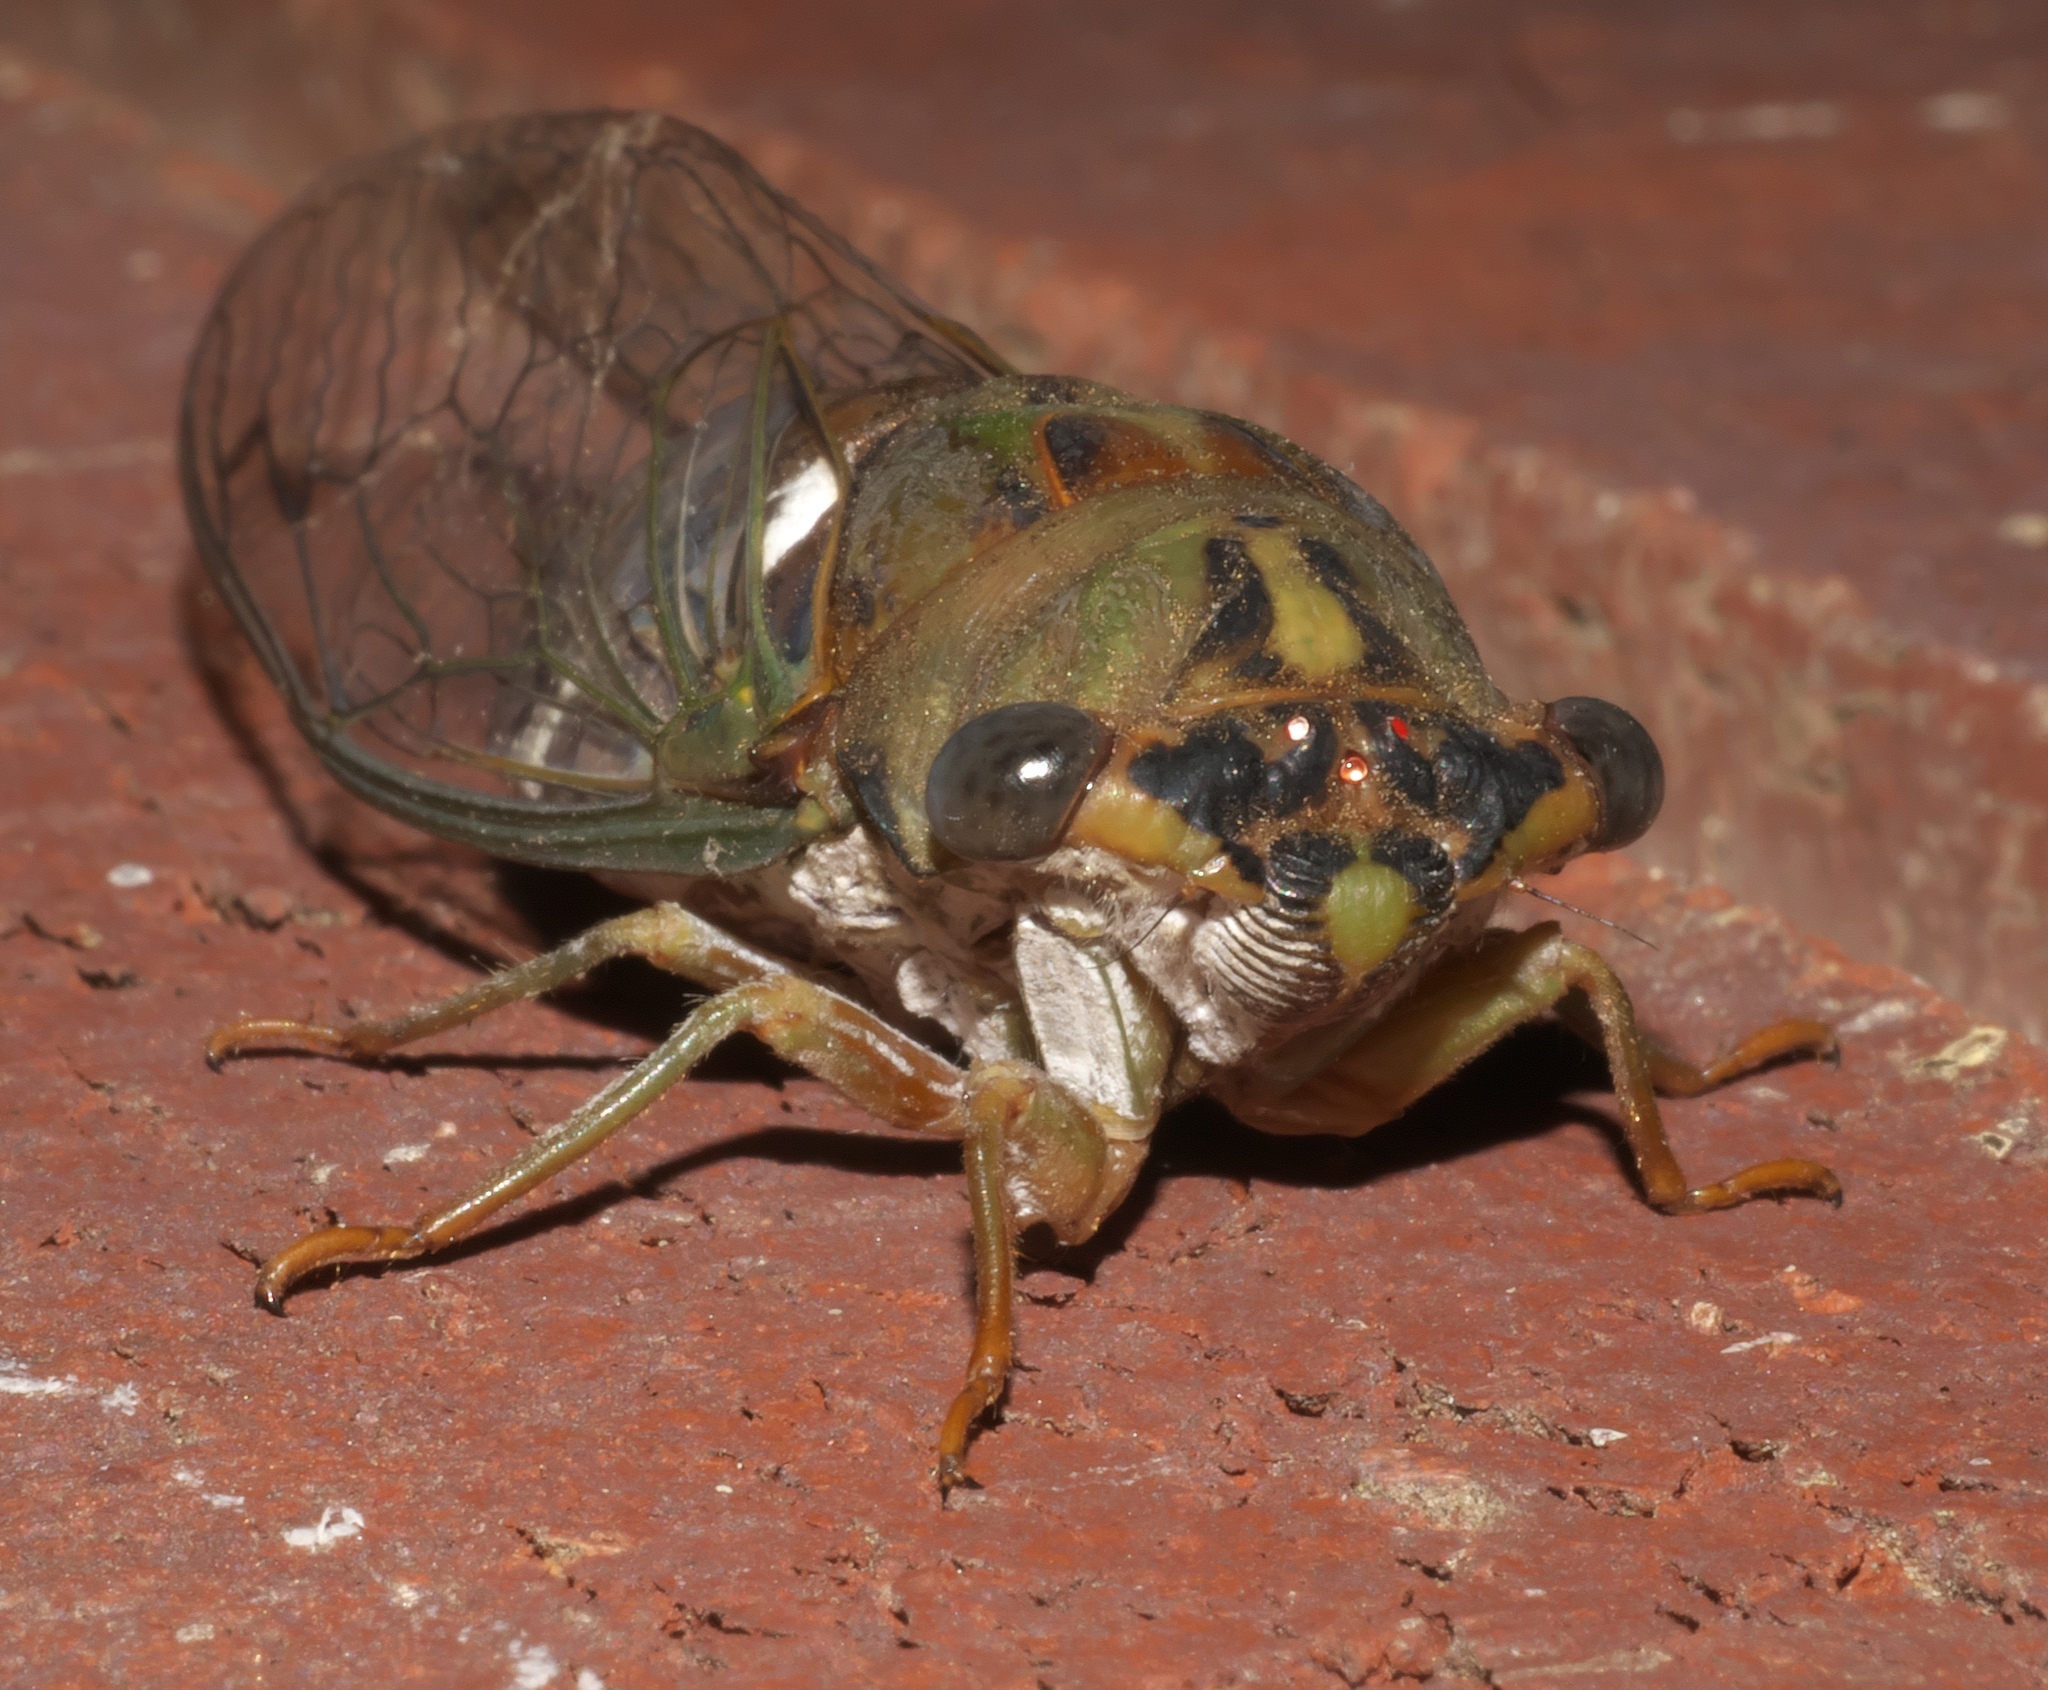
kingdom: Animalia
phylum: Arthropoda
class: Insecta
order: Hemiptera
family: Cicadidae
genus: Neotibicen
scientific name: Neotibicen pruinosus
